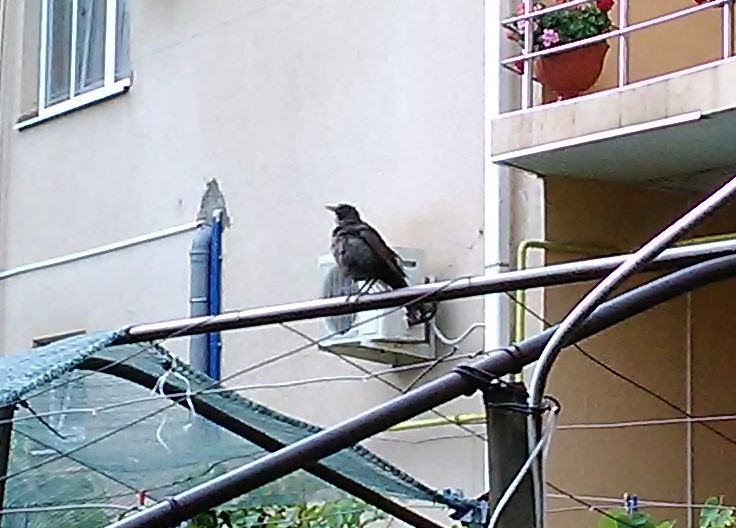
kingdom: Animalia
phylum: Chordata
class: Aves
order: Passeriformes
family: Turdidae
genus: Turdus
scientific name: Turdus merula
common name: Common blackbird
